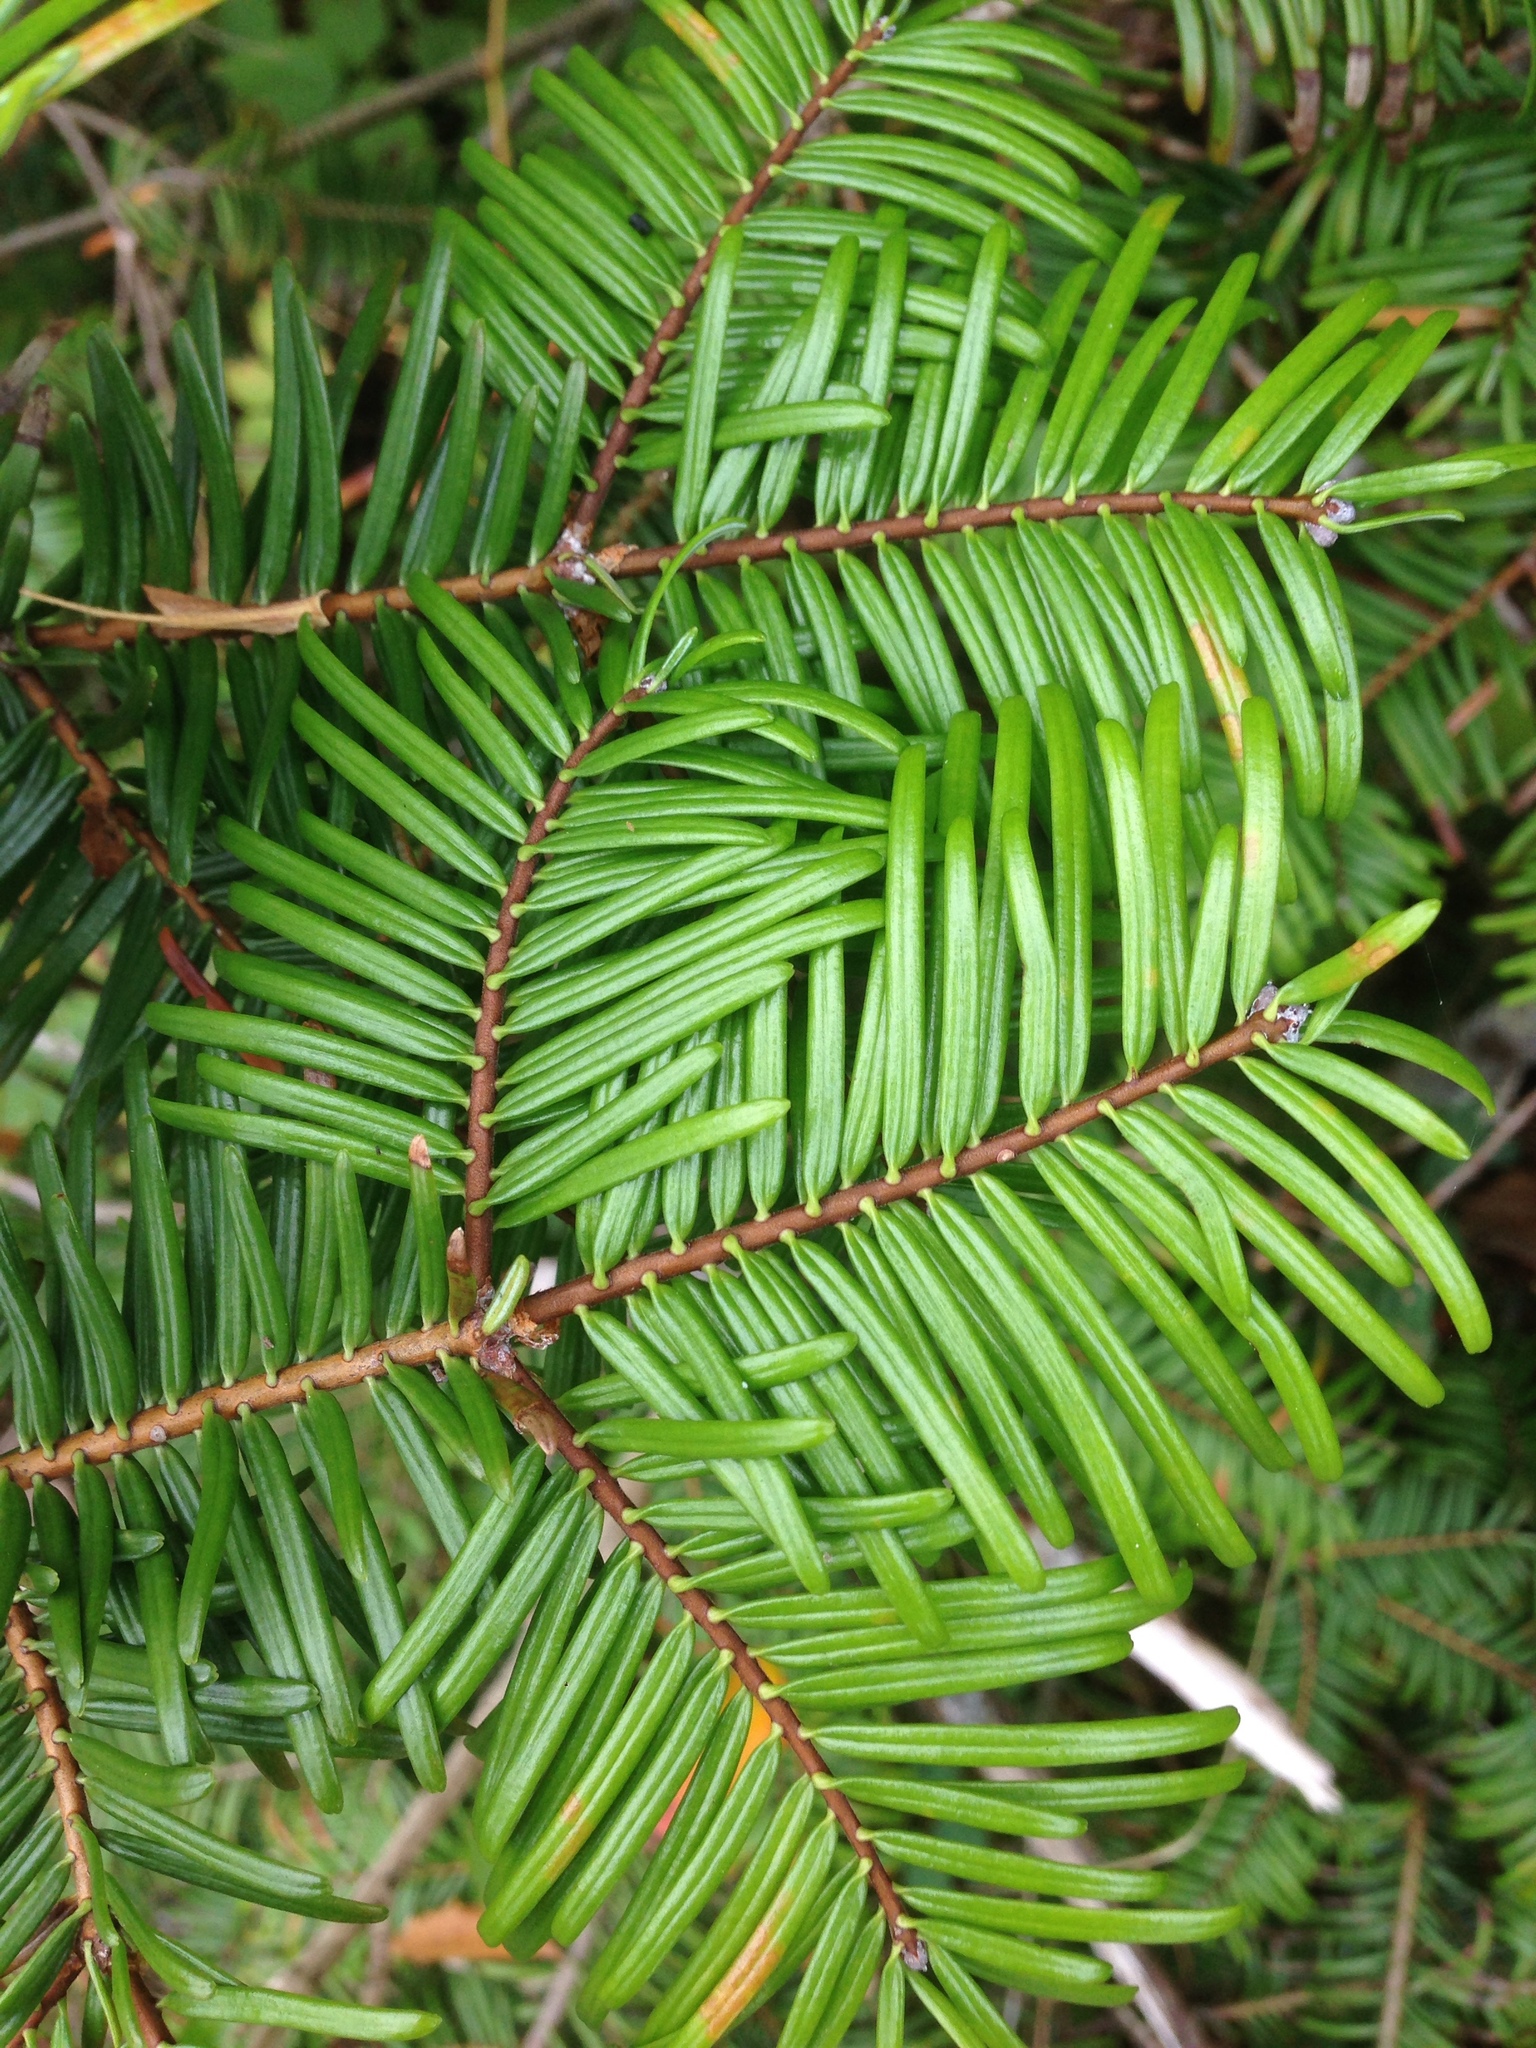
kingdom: Plantae
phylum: Tracheophyta
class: Pinopsida
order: Pinales
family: Pinaceae
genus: Abies
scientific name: Abies grandis
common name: Giant fir
